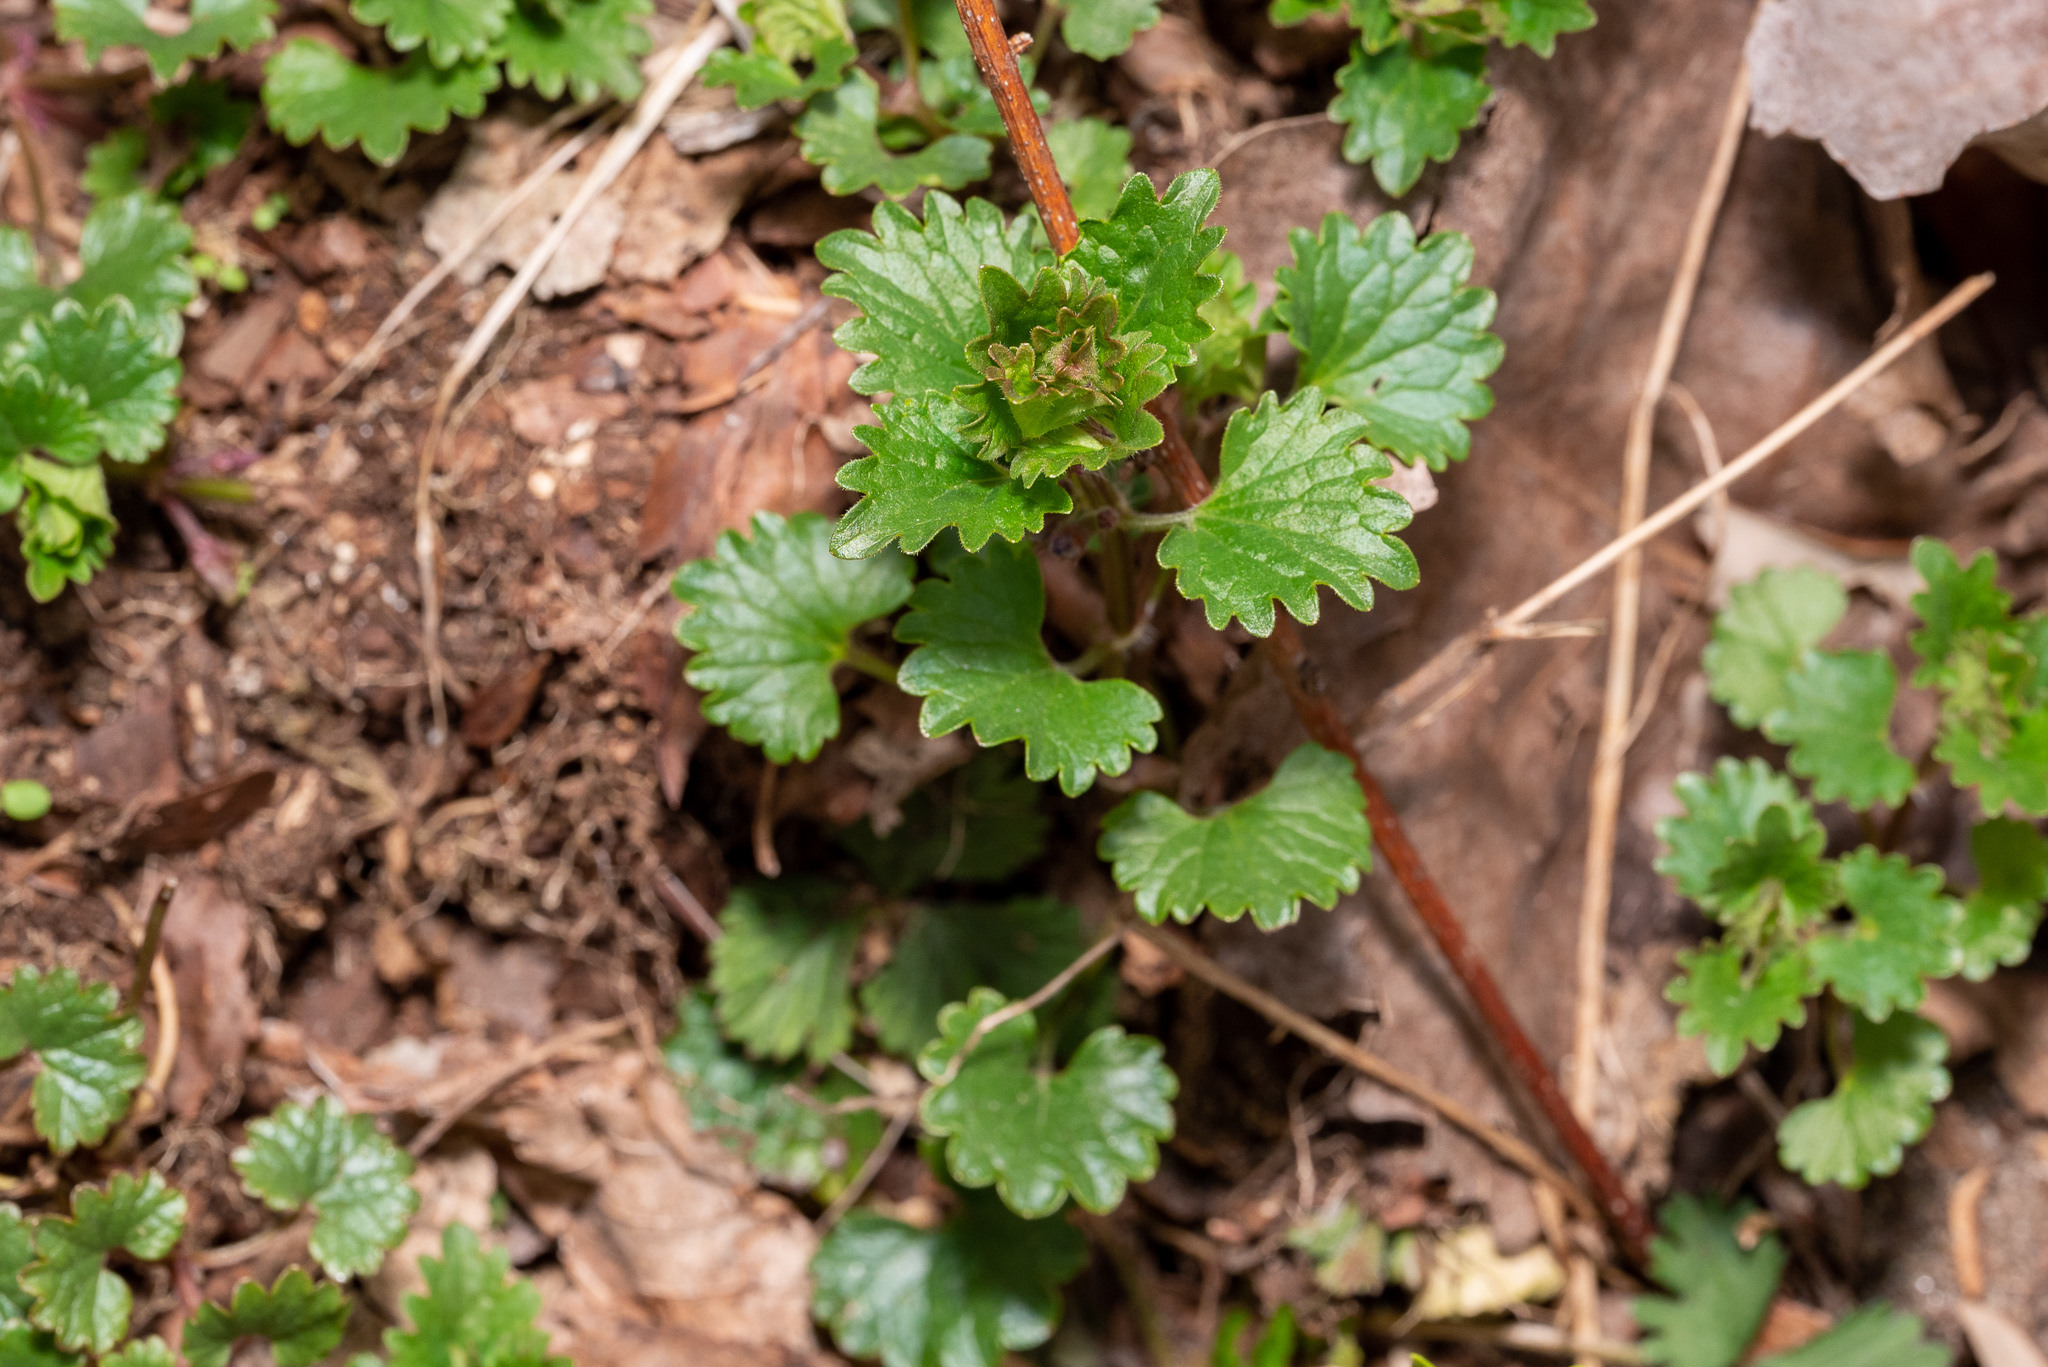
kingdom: Plantae
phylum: Tracheophyta
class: Magnoliopsida
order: Lamiales
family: Lamiaceae
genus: Glechoma
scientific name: Glechoma hederacea
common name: Ground ivy
